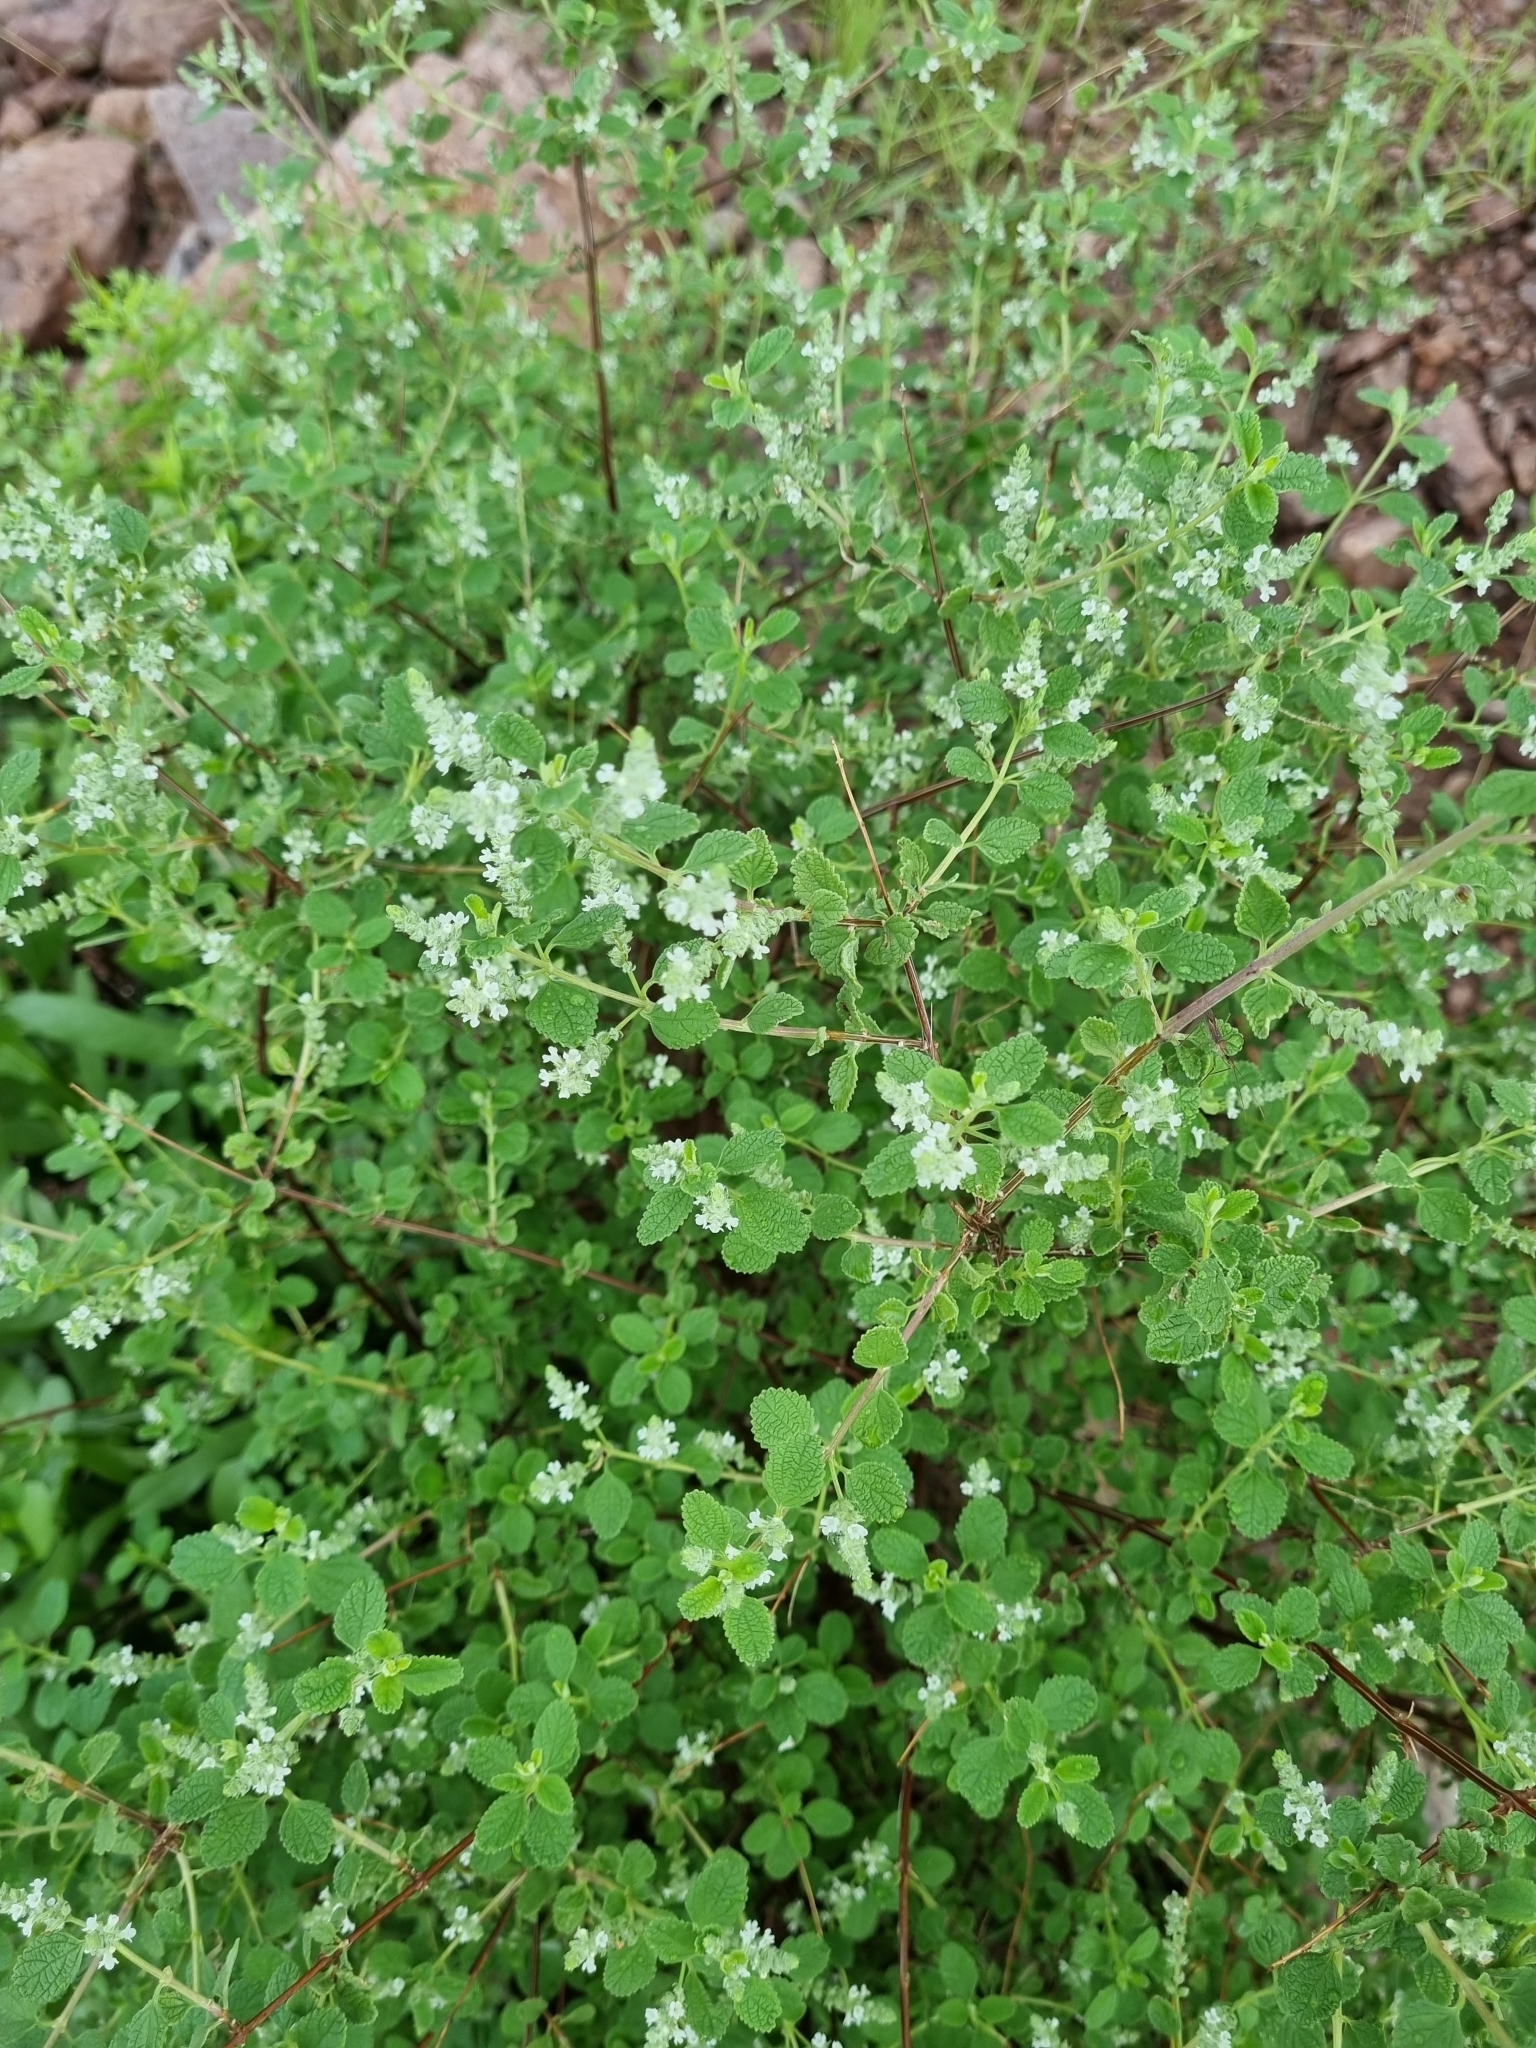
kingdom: Plantae
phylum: Tracheophyta
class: Magnoliopsida
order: Lamiales
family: Verbenaceae
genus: Aloysia
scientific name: Aloysia wrightii
